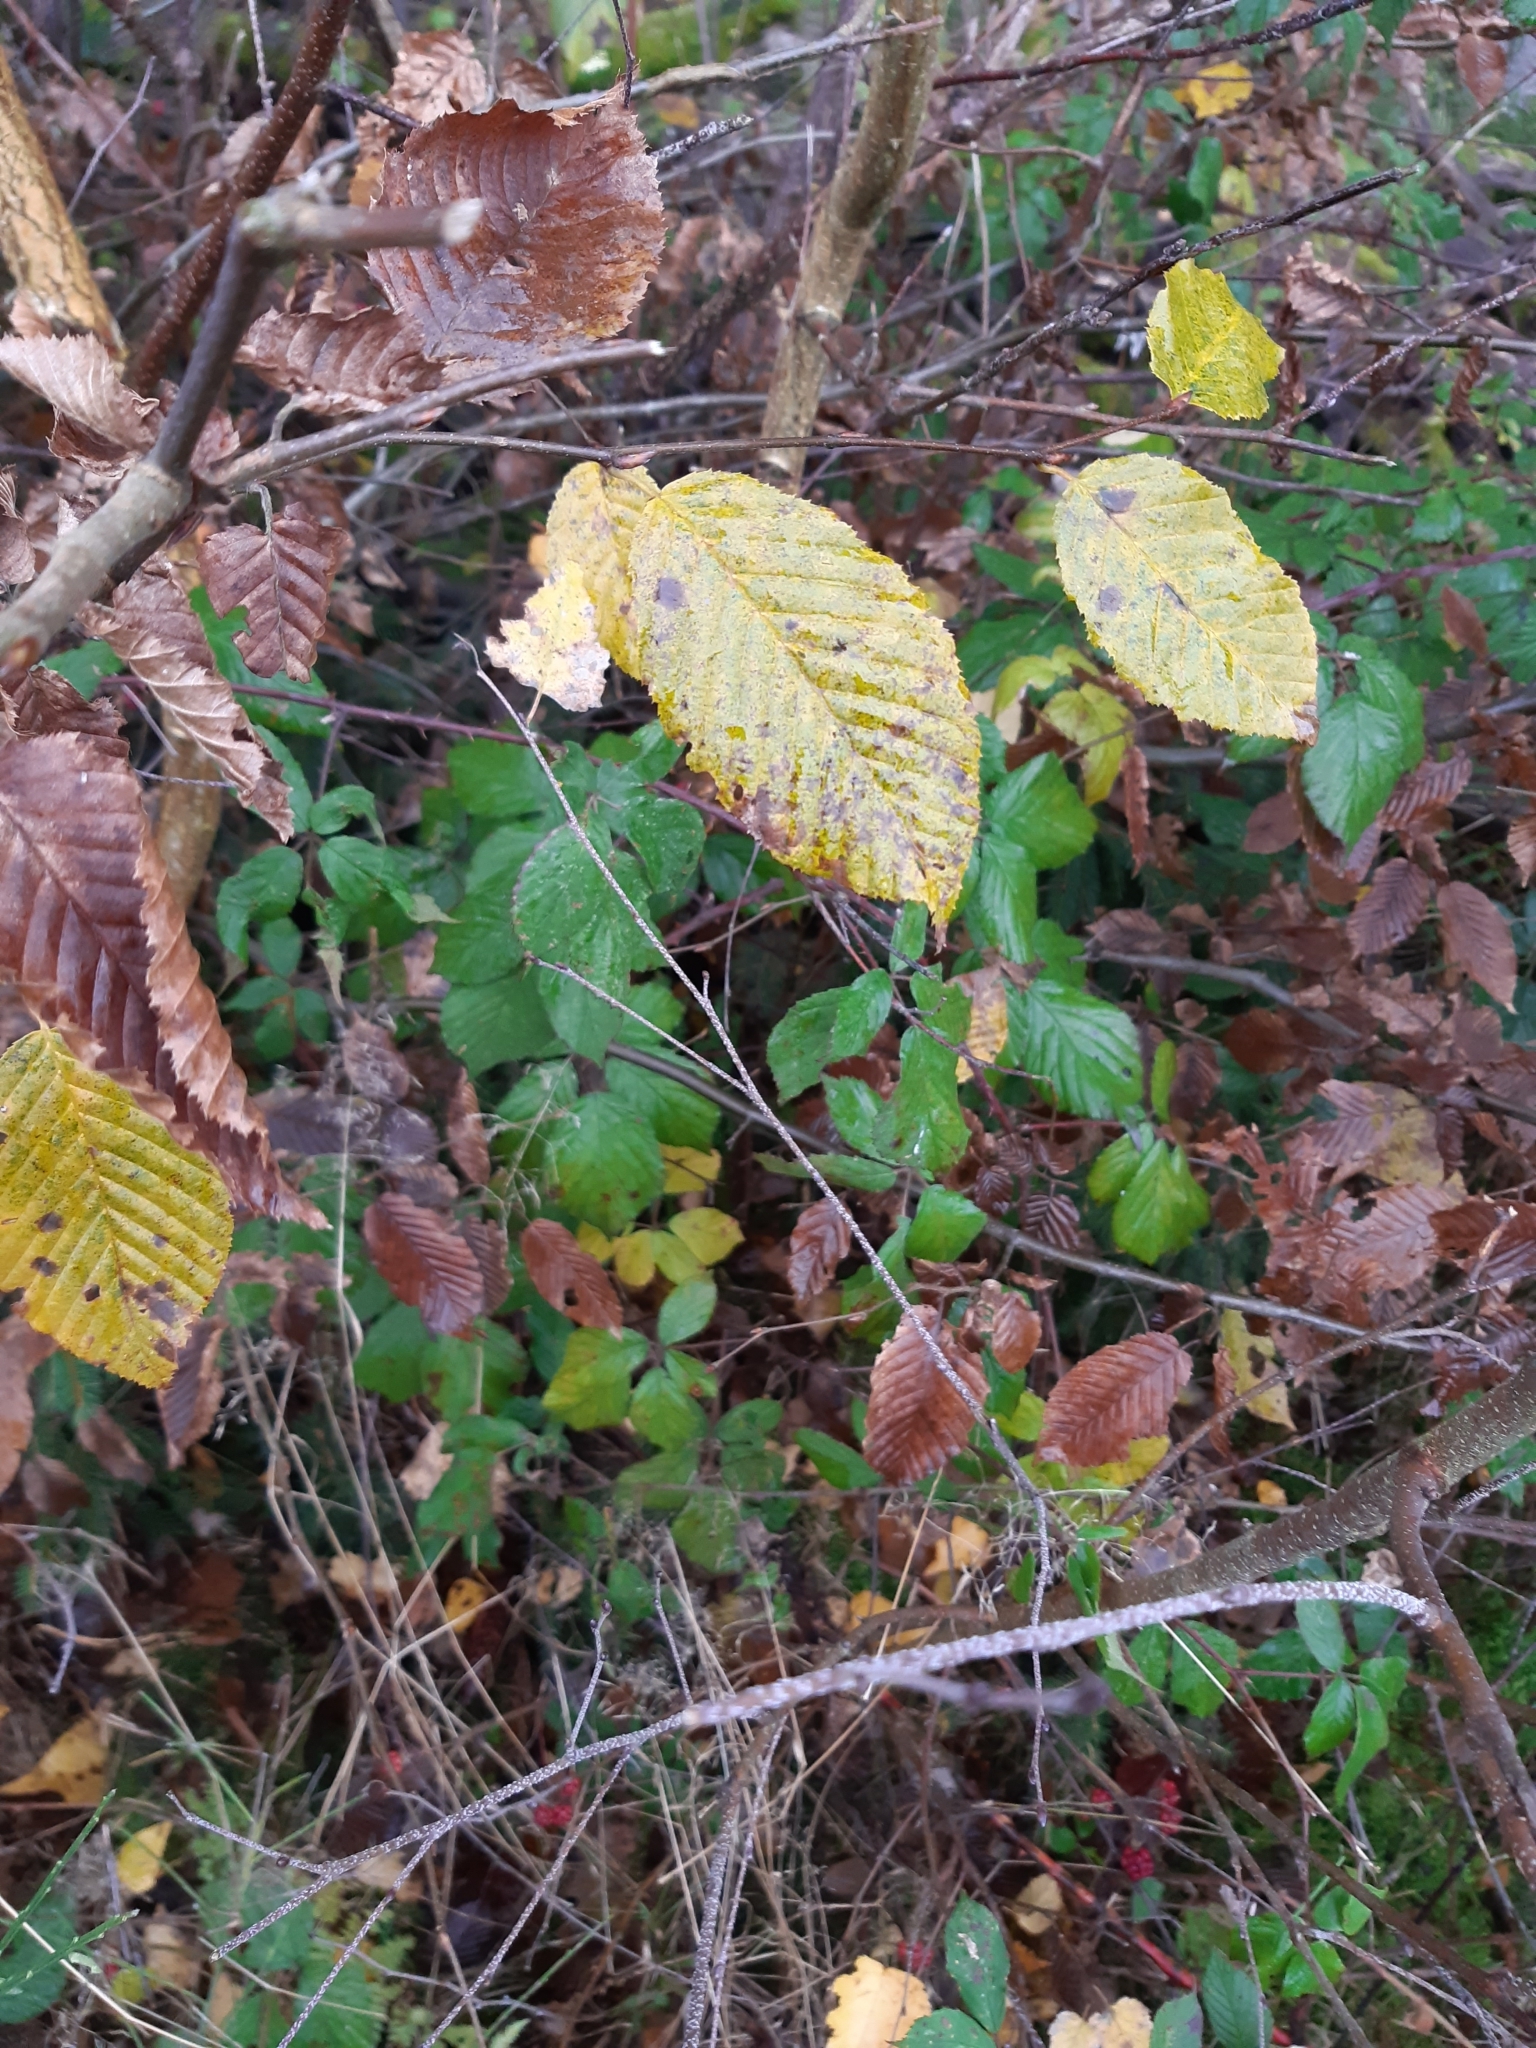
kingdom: Plantae
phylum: Tracheophyta
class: Magnoliopsida
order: Fagales
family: Betulaceae
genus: Carpinus
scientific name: Carpinus betulus
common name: Hornbeam
